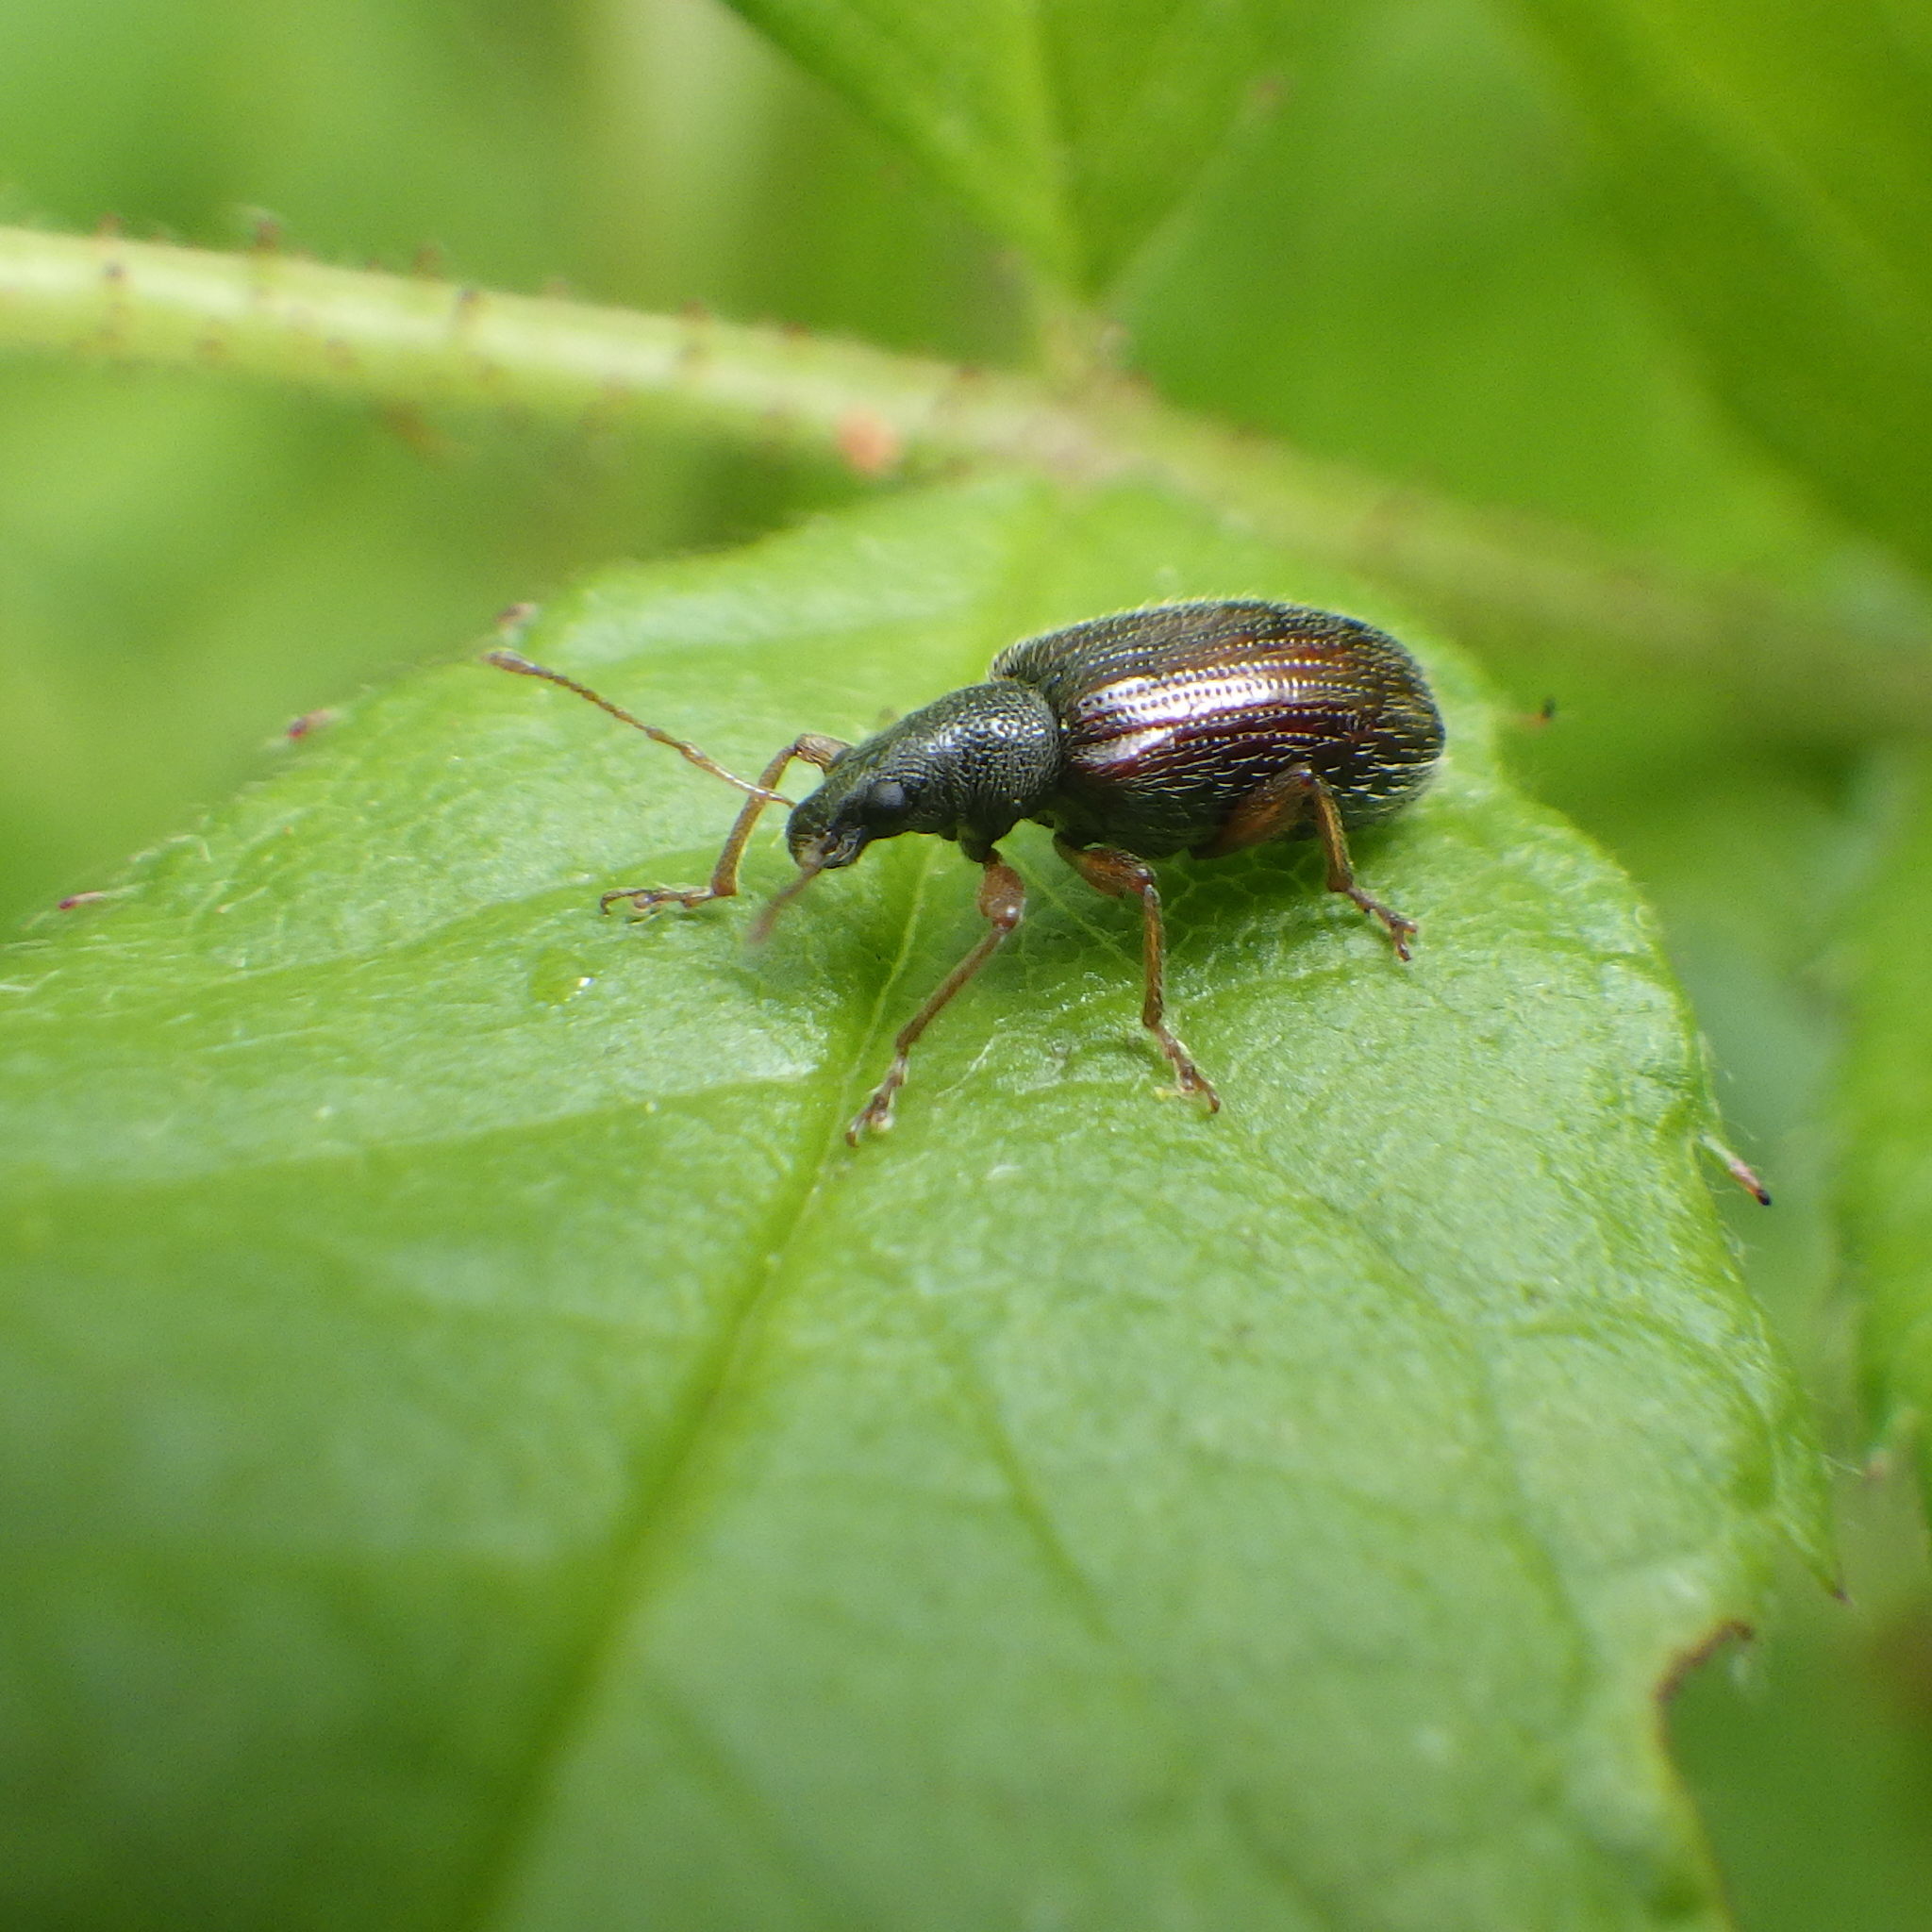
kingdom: Animalia
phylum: Arthropoda
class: Insecta
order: Coleoptera
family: Curculionidae
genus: Phyllobius
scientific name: Phyllobius oblongus
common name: Brown leaf weevil
